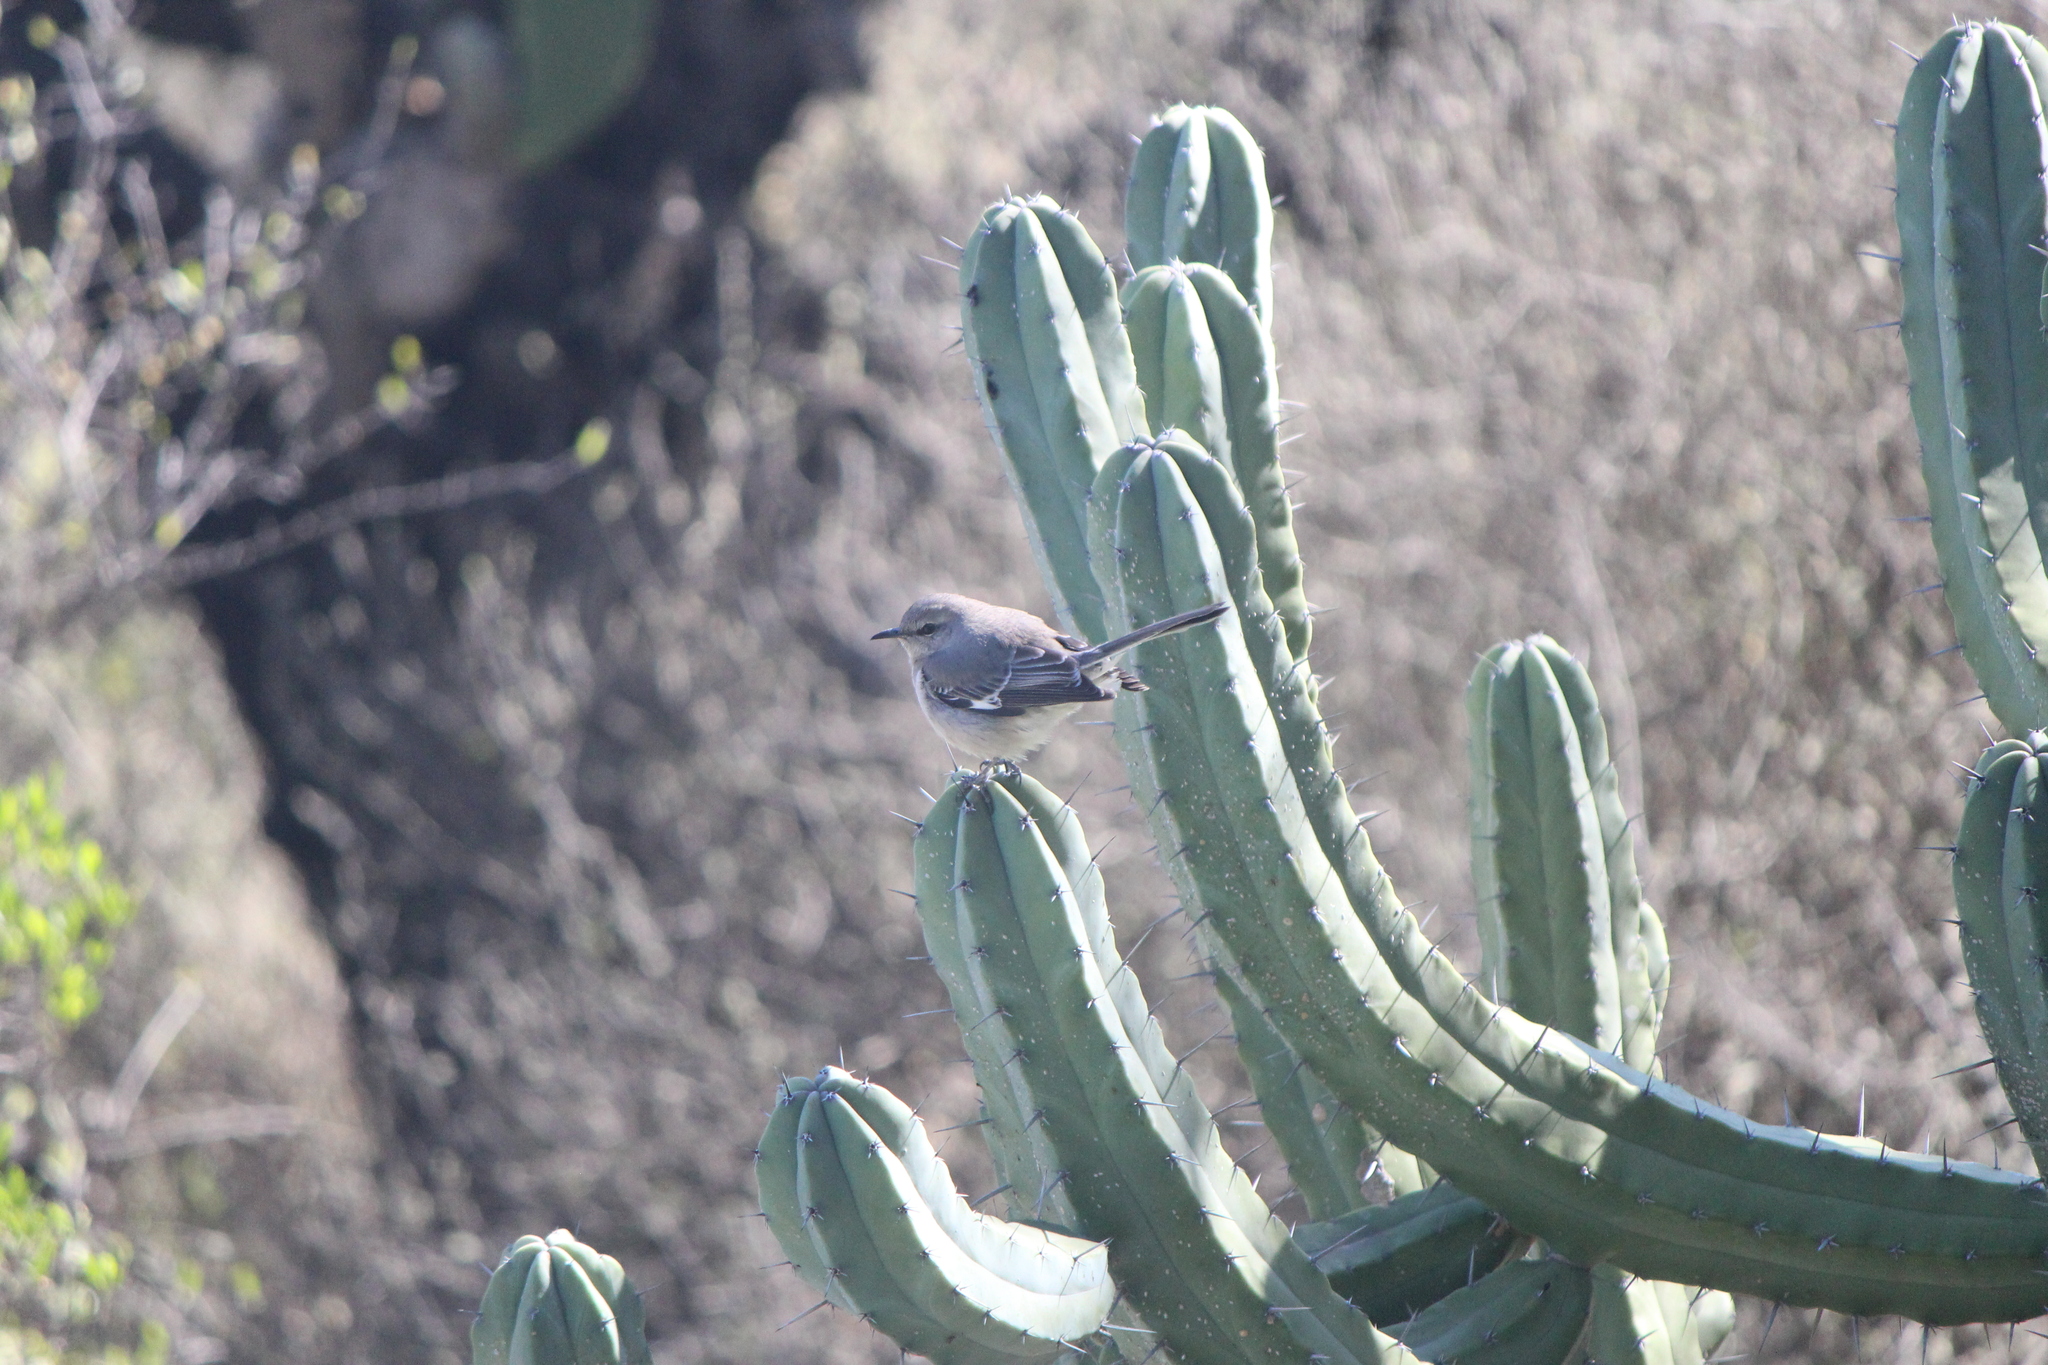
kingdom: Animalia
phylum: Chordata
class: Aves
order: Passeriformes
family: Mimidae
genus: Mimus
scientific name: Mimus polyglottos
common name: Northern mockingbird
